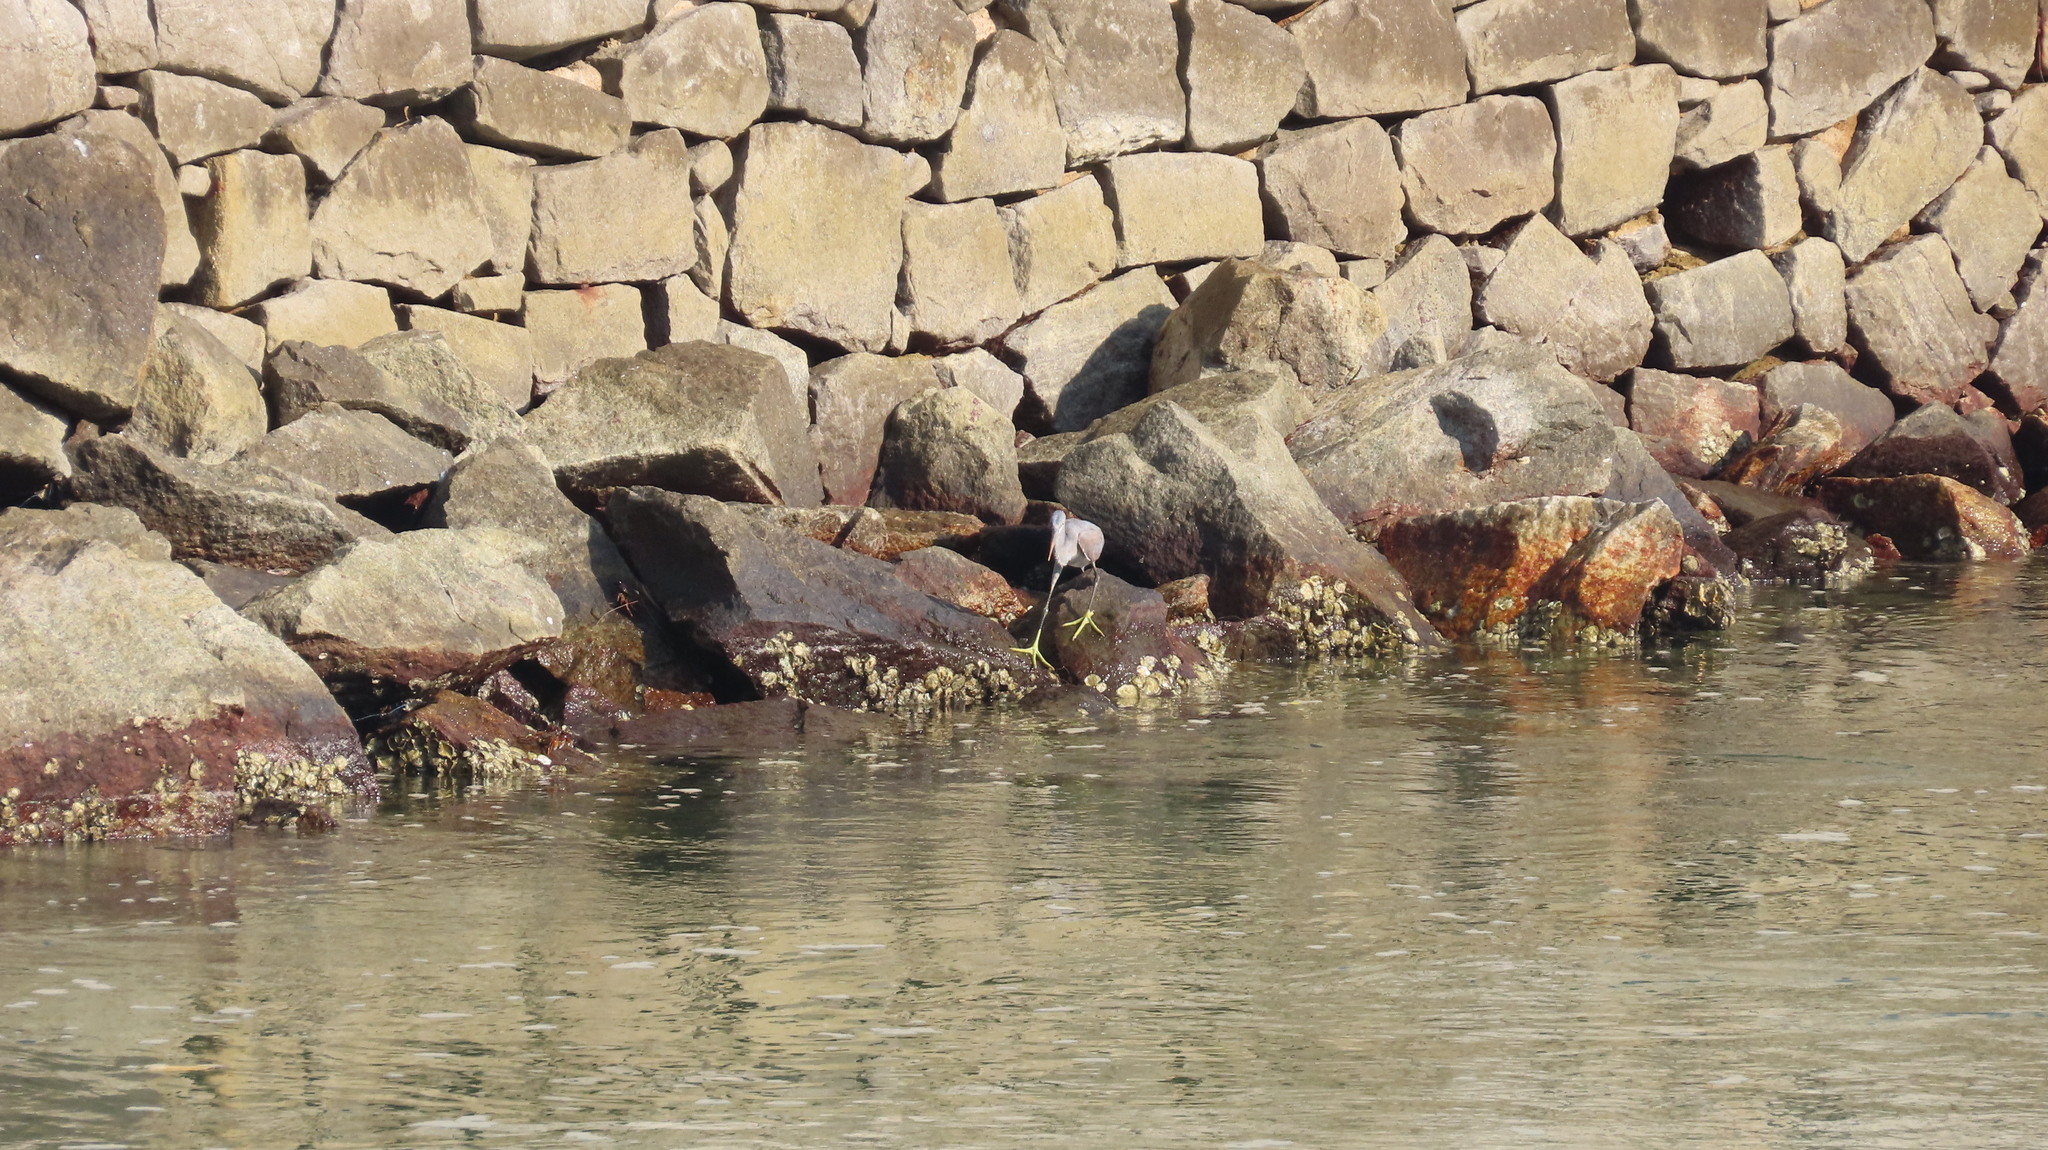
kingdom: Animalia
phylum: Chordata
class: Aves
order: Pelecaniformes
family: Ardeidae
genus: Egretta
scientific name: Egretta gularis
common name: Western reef-heron
